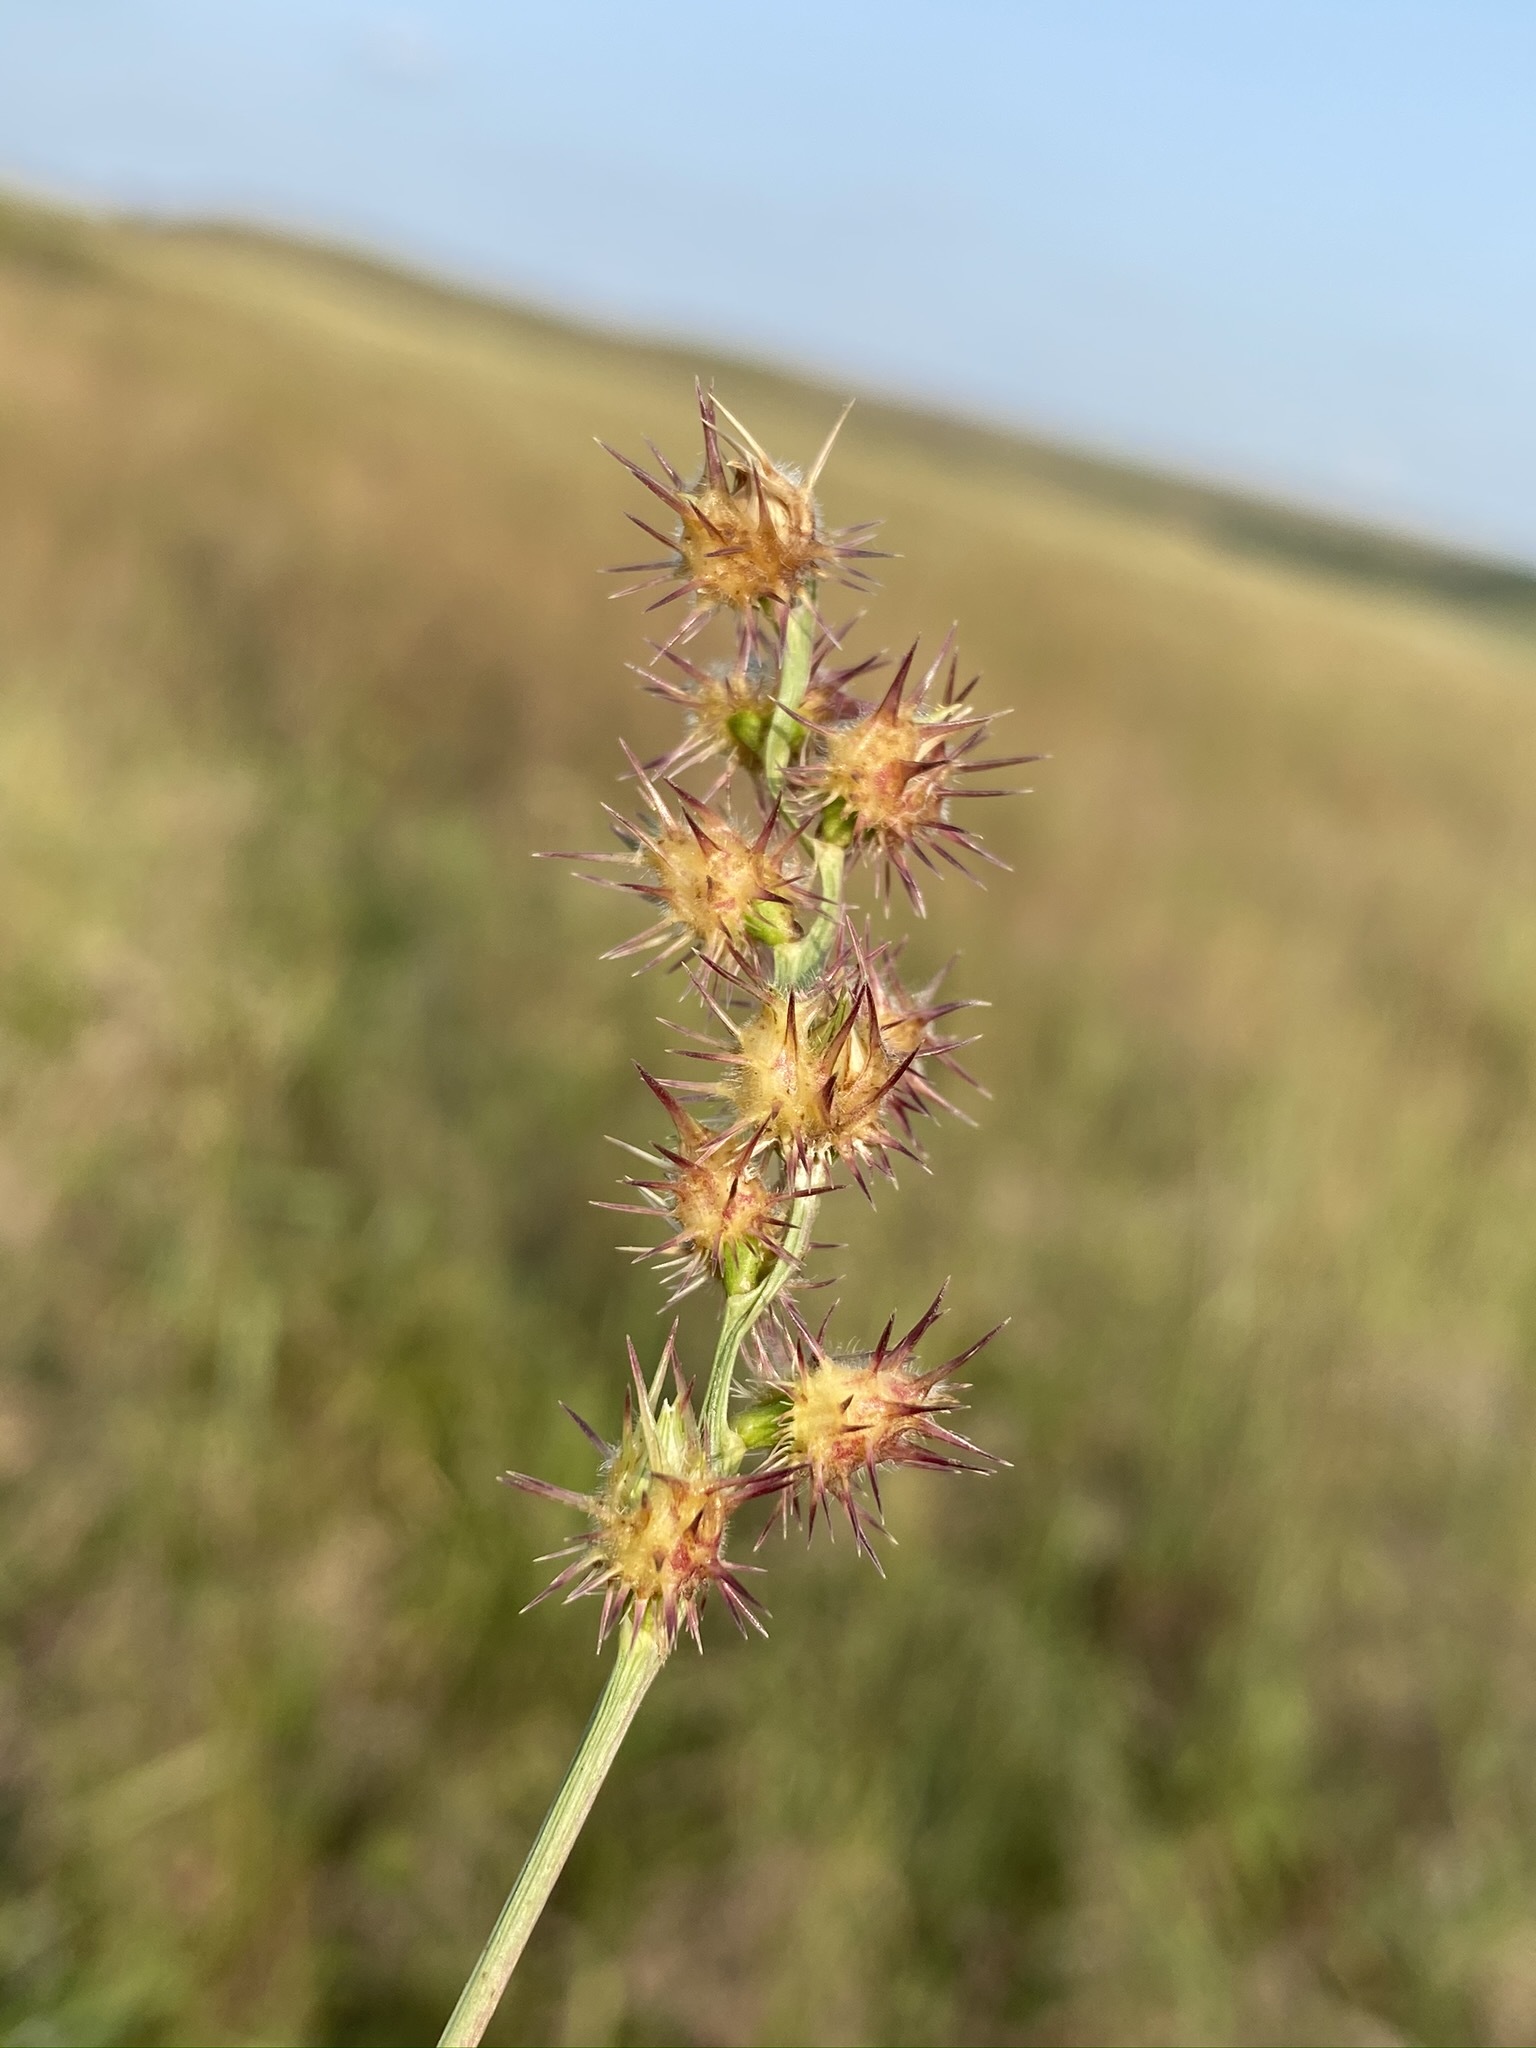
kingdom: Plantae
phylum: Tracheophyta
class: Liliopsida
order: Poales
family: Poaceae
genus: Cenchrus
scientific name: Cenchrus longispinus
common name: Mat sandbur
